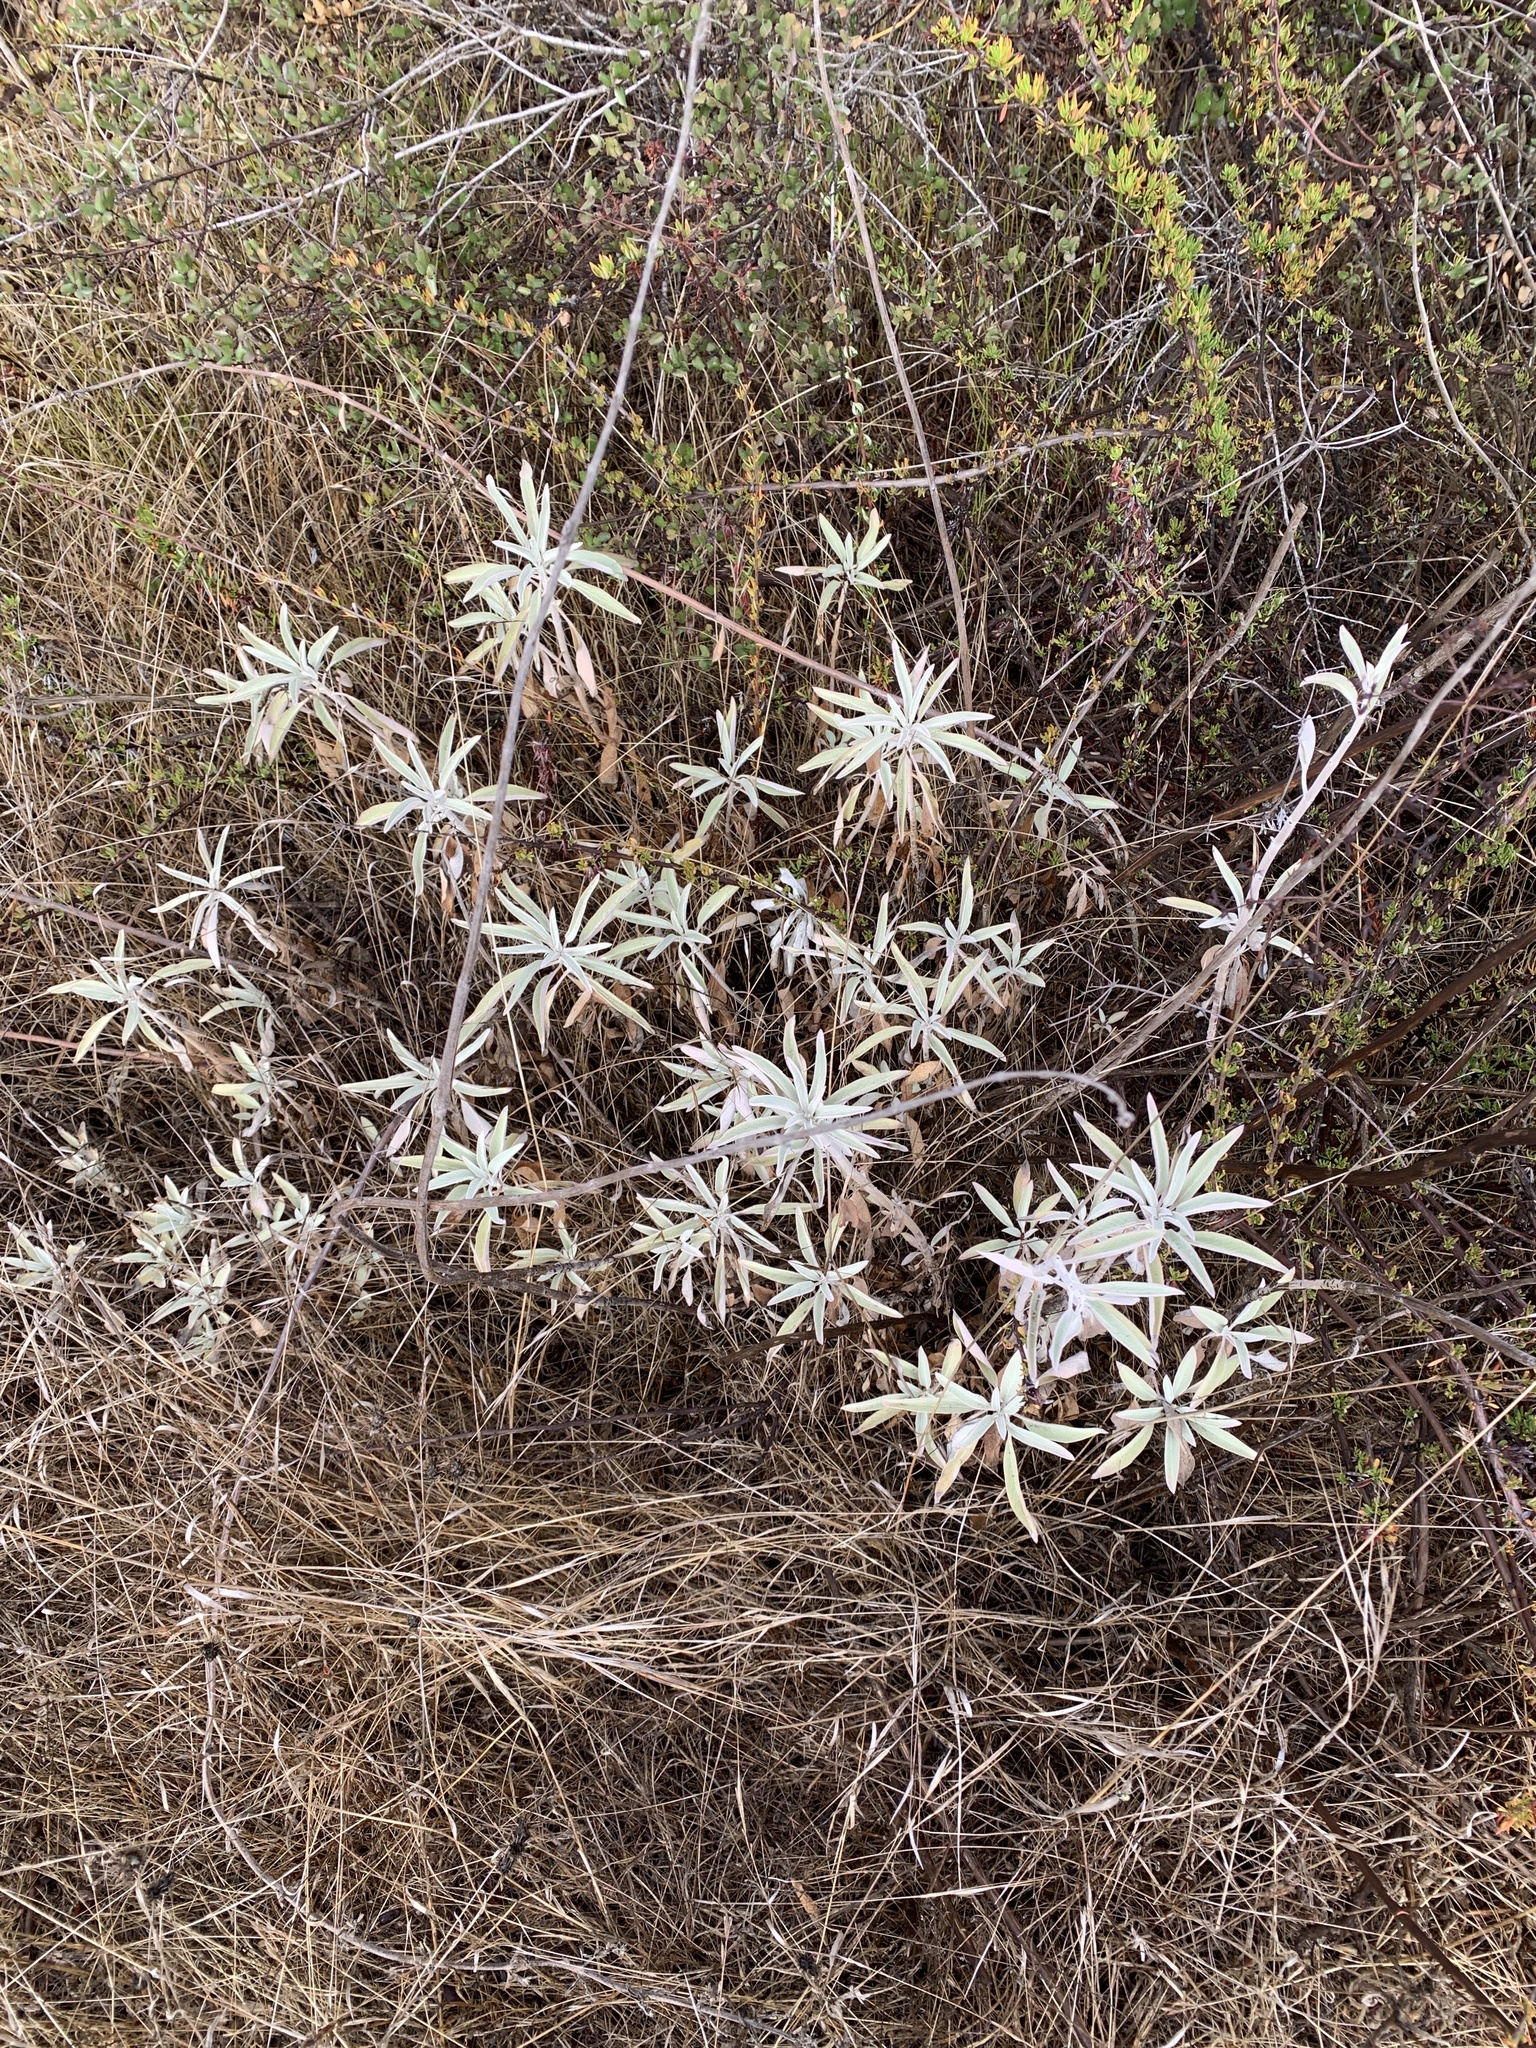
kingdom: Plantae
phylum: Tracheophyta
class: Magnoliopsida
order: Lamiales
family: Lamiaceae
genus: Salvia
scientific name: Salvia apiana
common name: White sage
